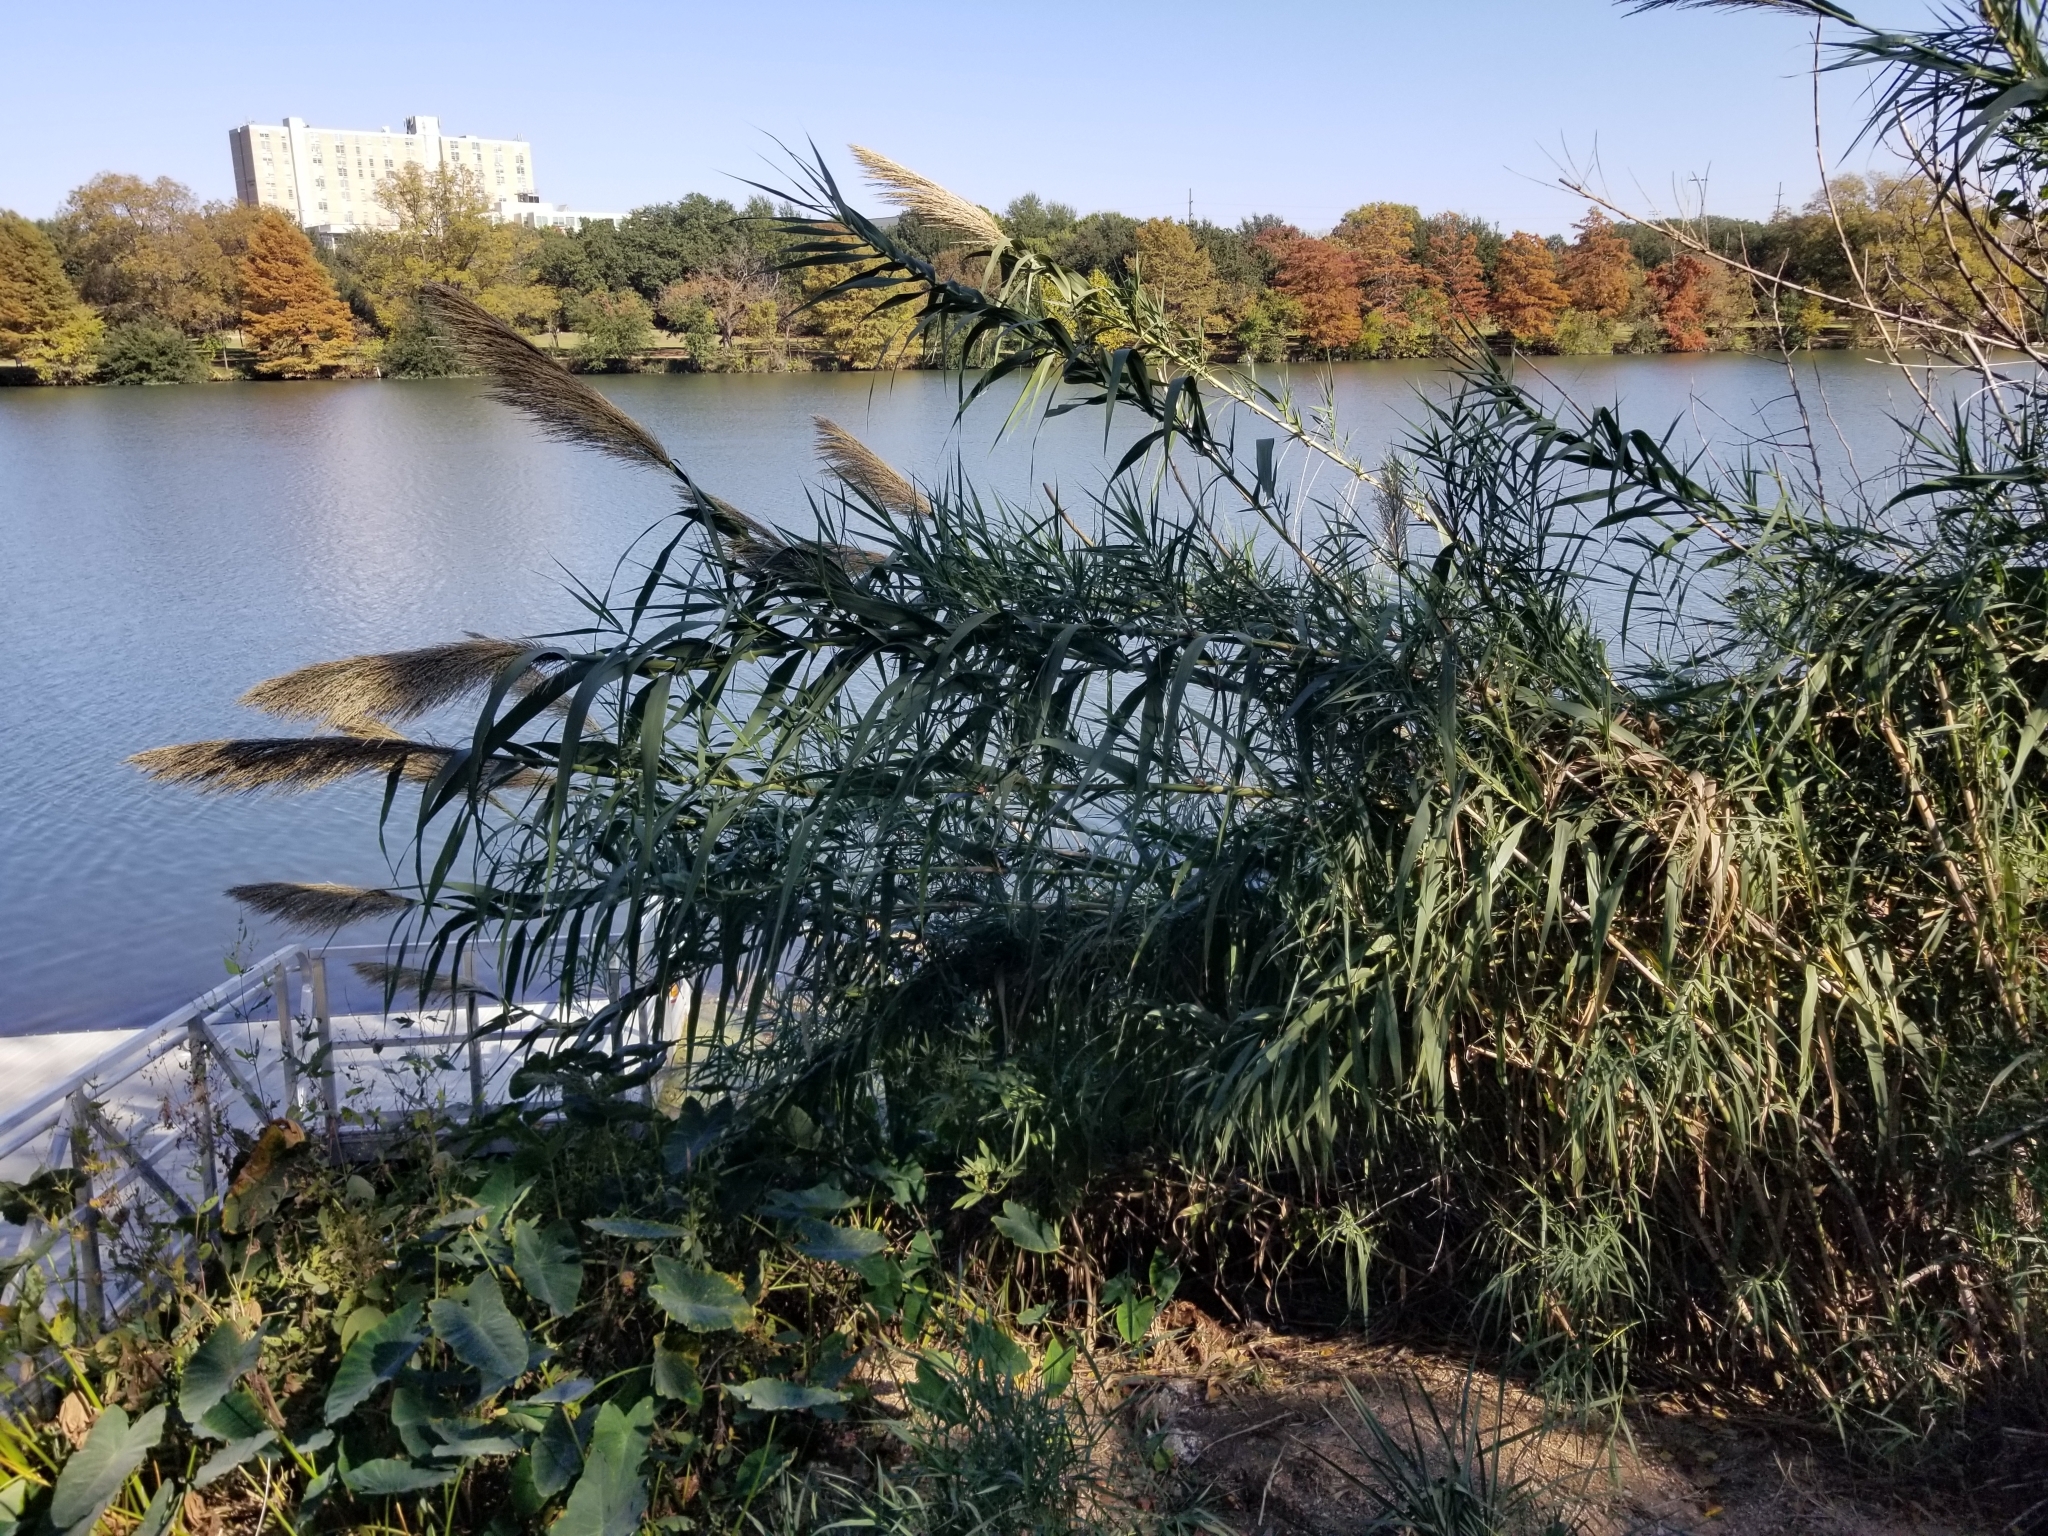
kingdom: Plantae
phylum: Tracheophyta
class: Liliopsida
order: Poales
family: Poaceae
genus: Arundo
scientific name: Arundo donax
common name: Giant reed
